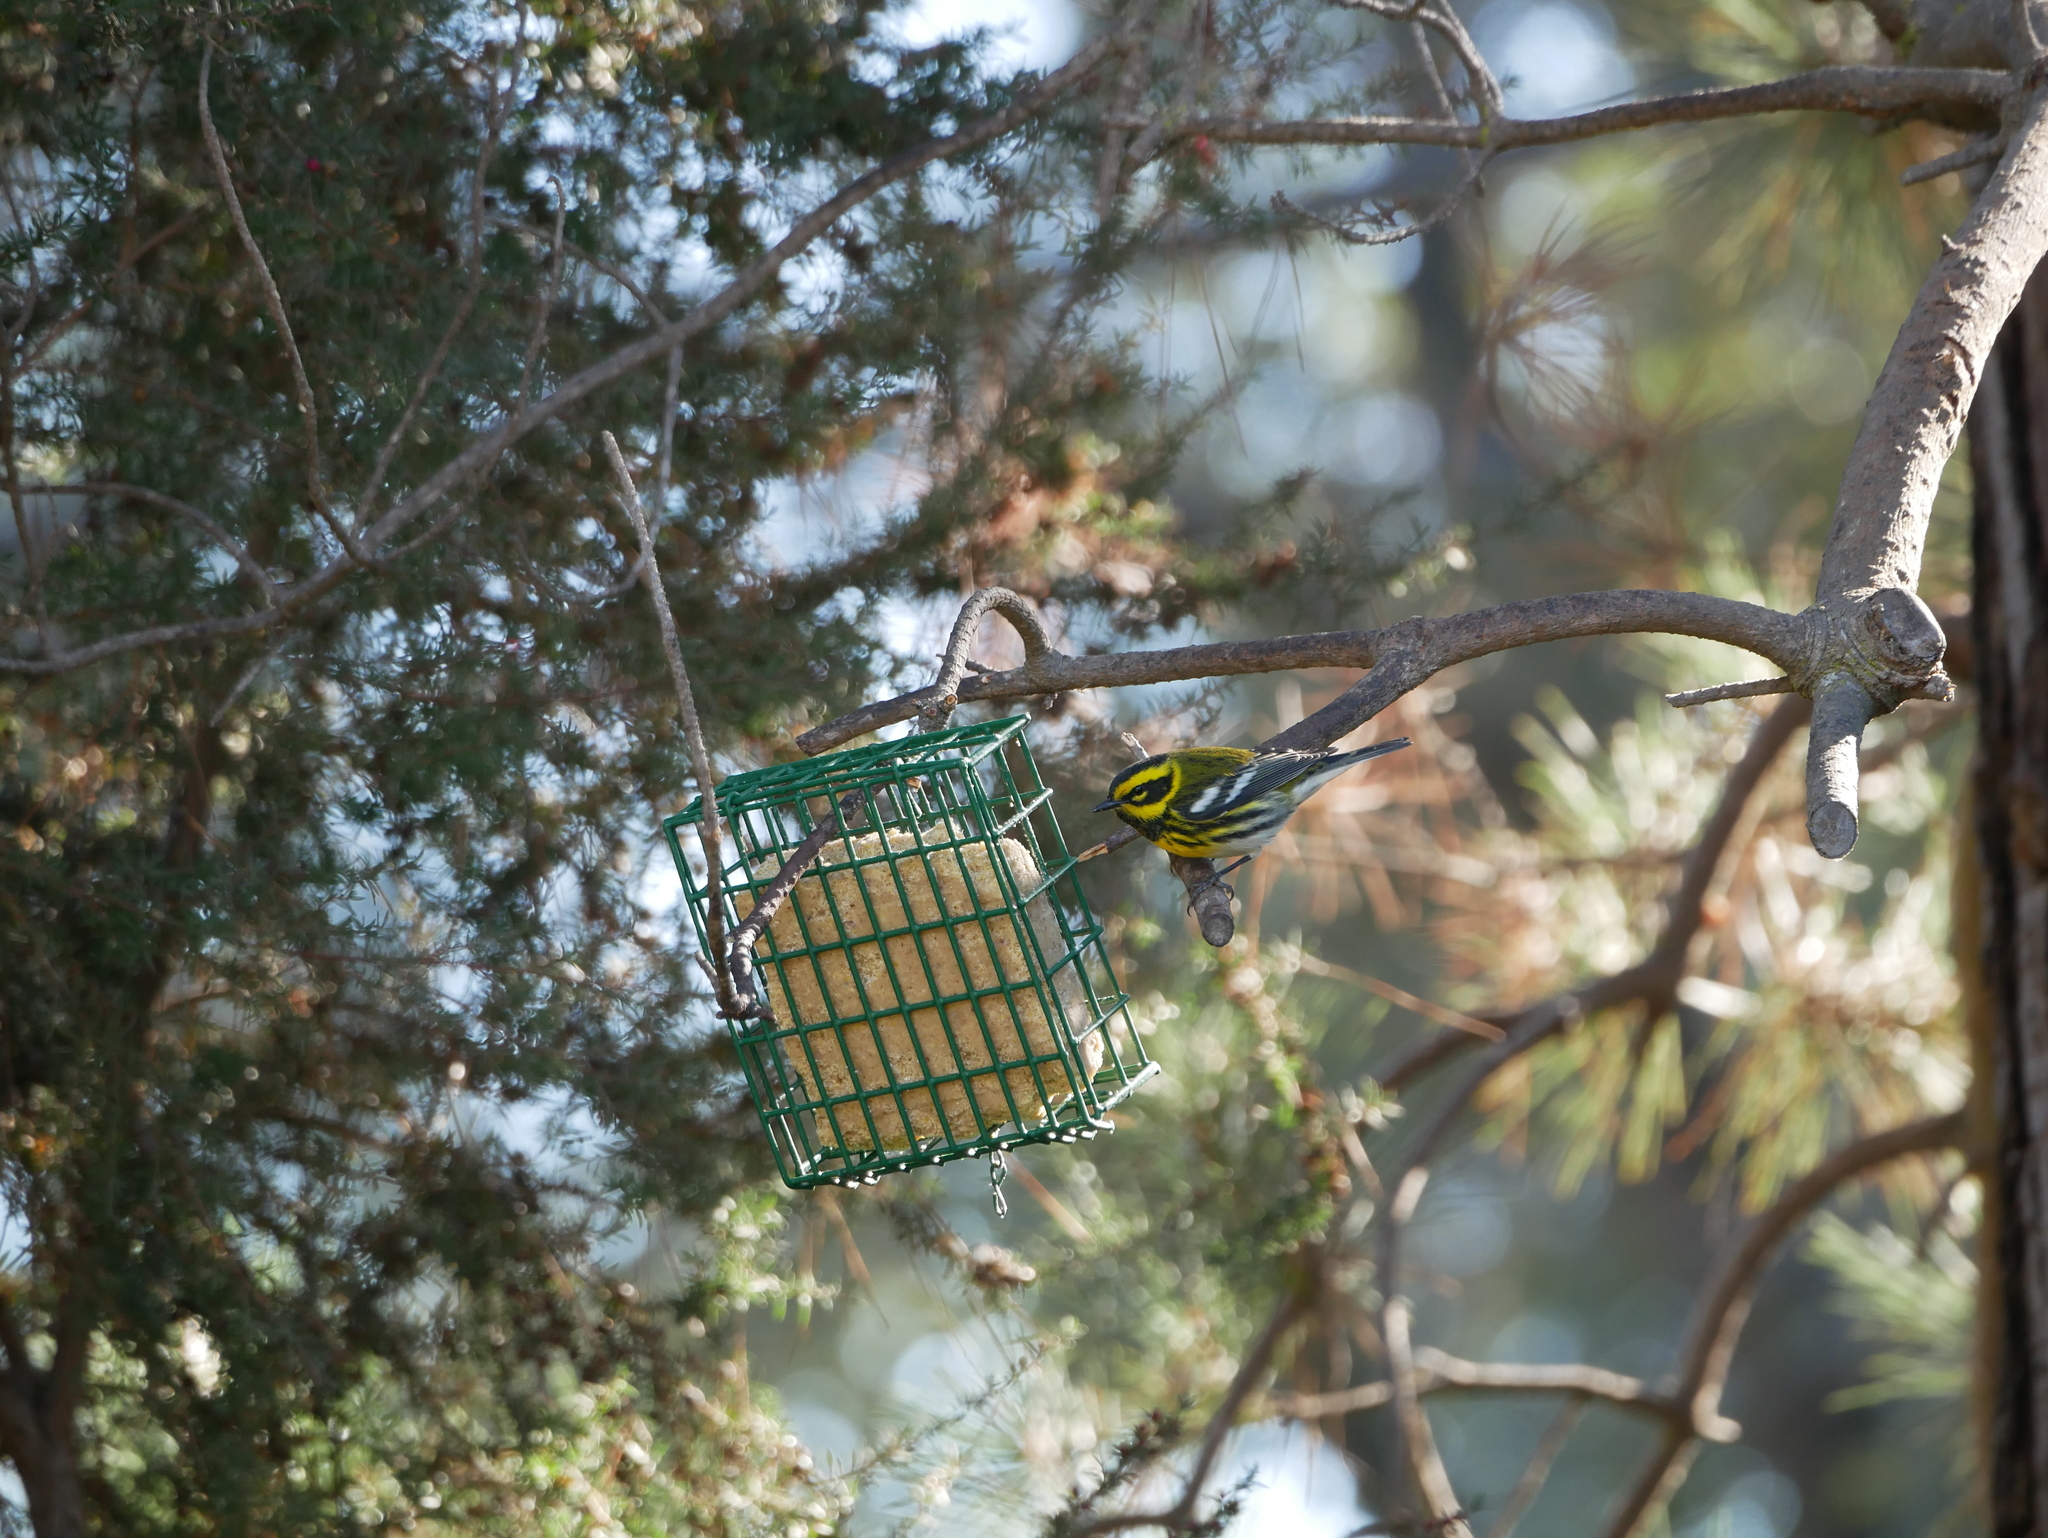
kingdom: Animalia
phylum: Chordata
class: Aves
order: Passeriformes
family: Parulidae
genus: Setophaga
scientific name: Setophaga townsendi
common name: Townsend's warbler
